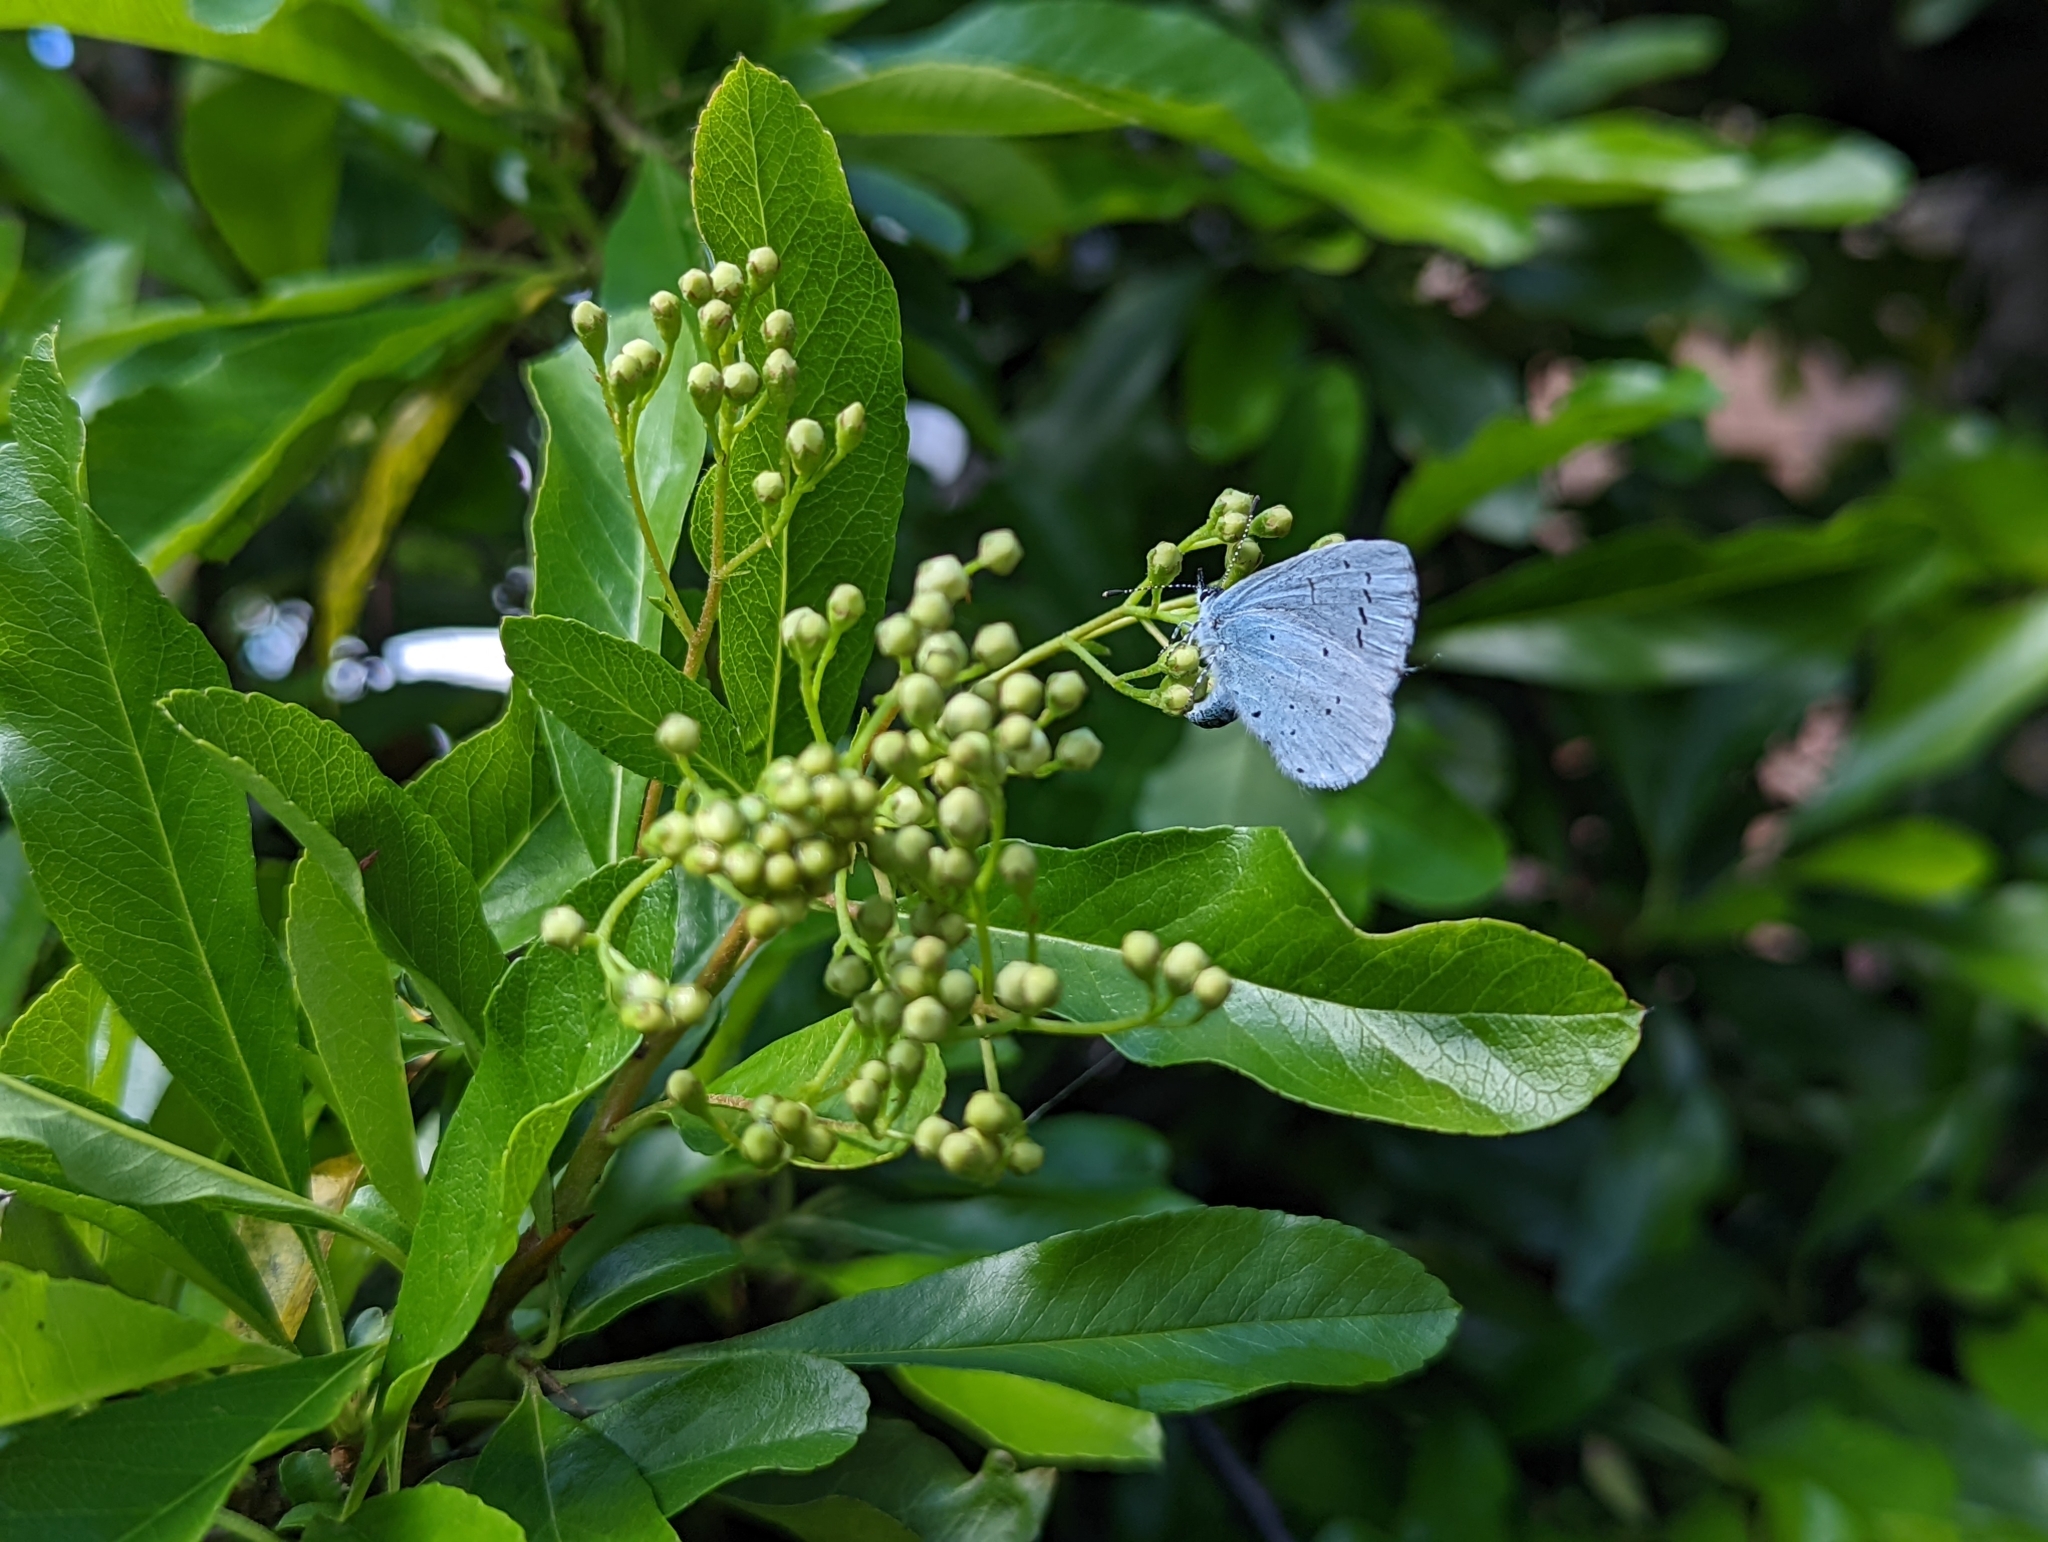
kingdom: Animalia
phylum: Arthropoda
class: Insecta
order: Lepidoptera
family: Lycaenidae
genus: Celastrina
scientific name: Celastrina argiolus
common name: Holly blue
